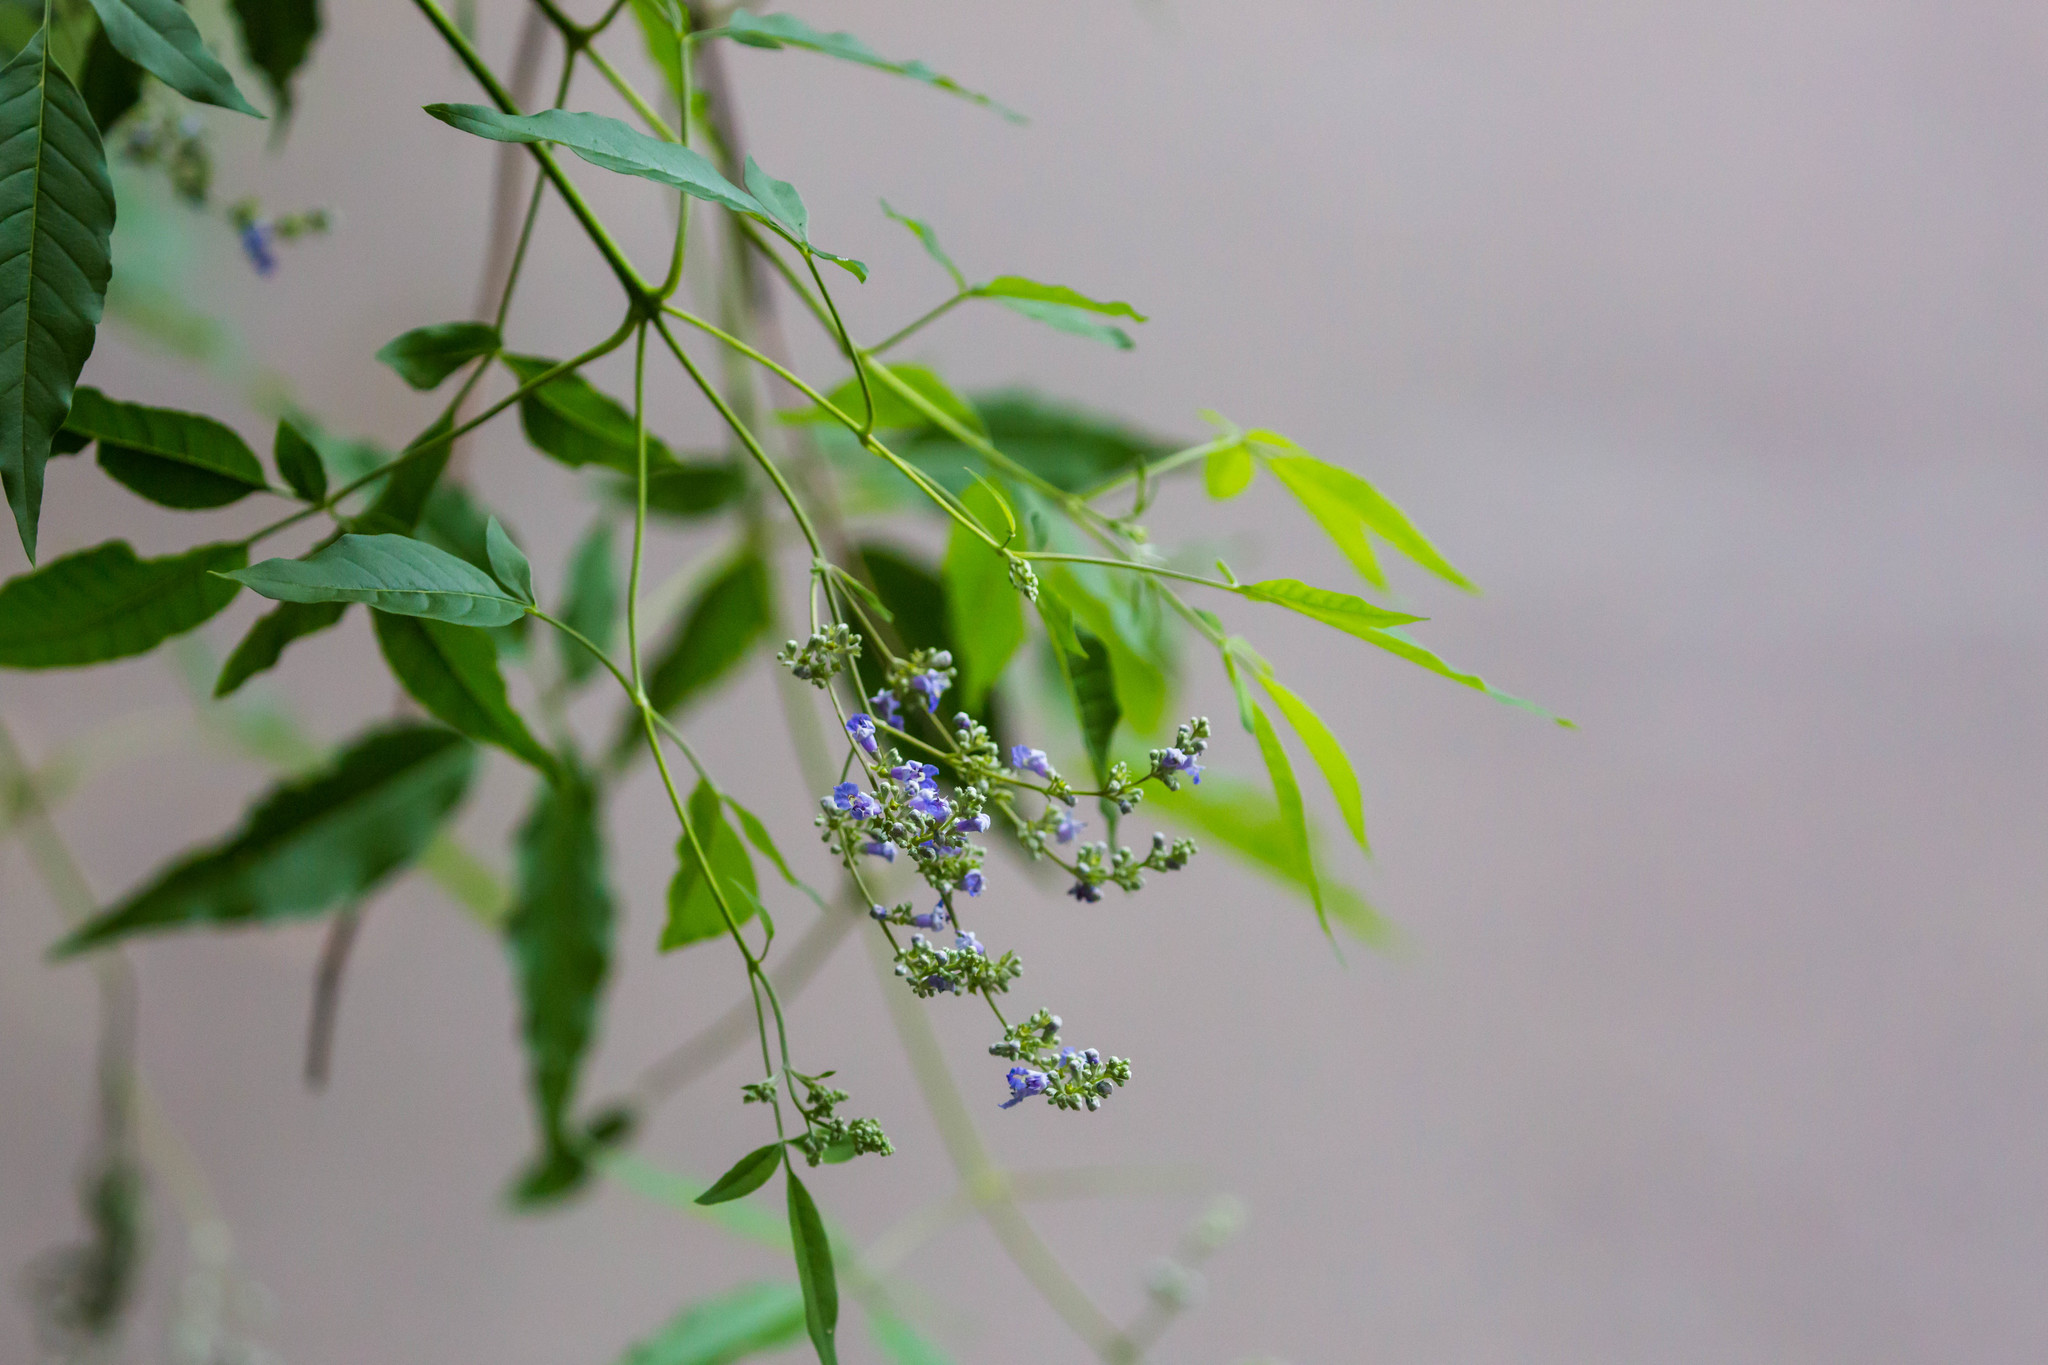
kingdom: Plantae
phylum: Tracheophyta
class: Magnoliopsida
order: Lamiales
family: Lamiaceae
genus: Vitex
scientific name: Vitex negundo
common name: Chinese chastetree
